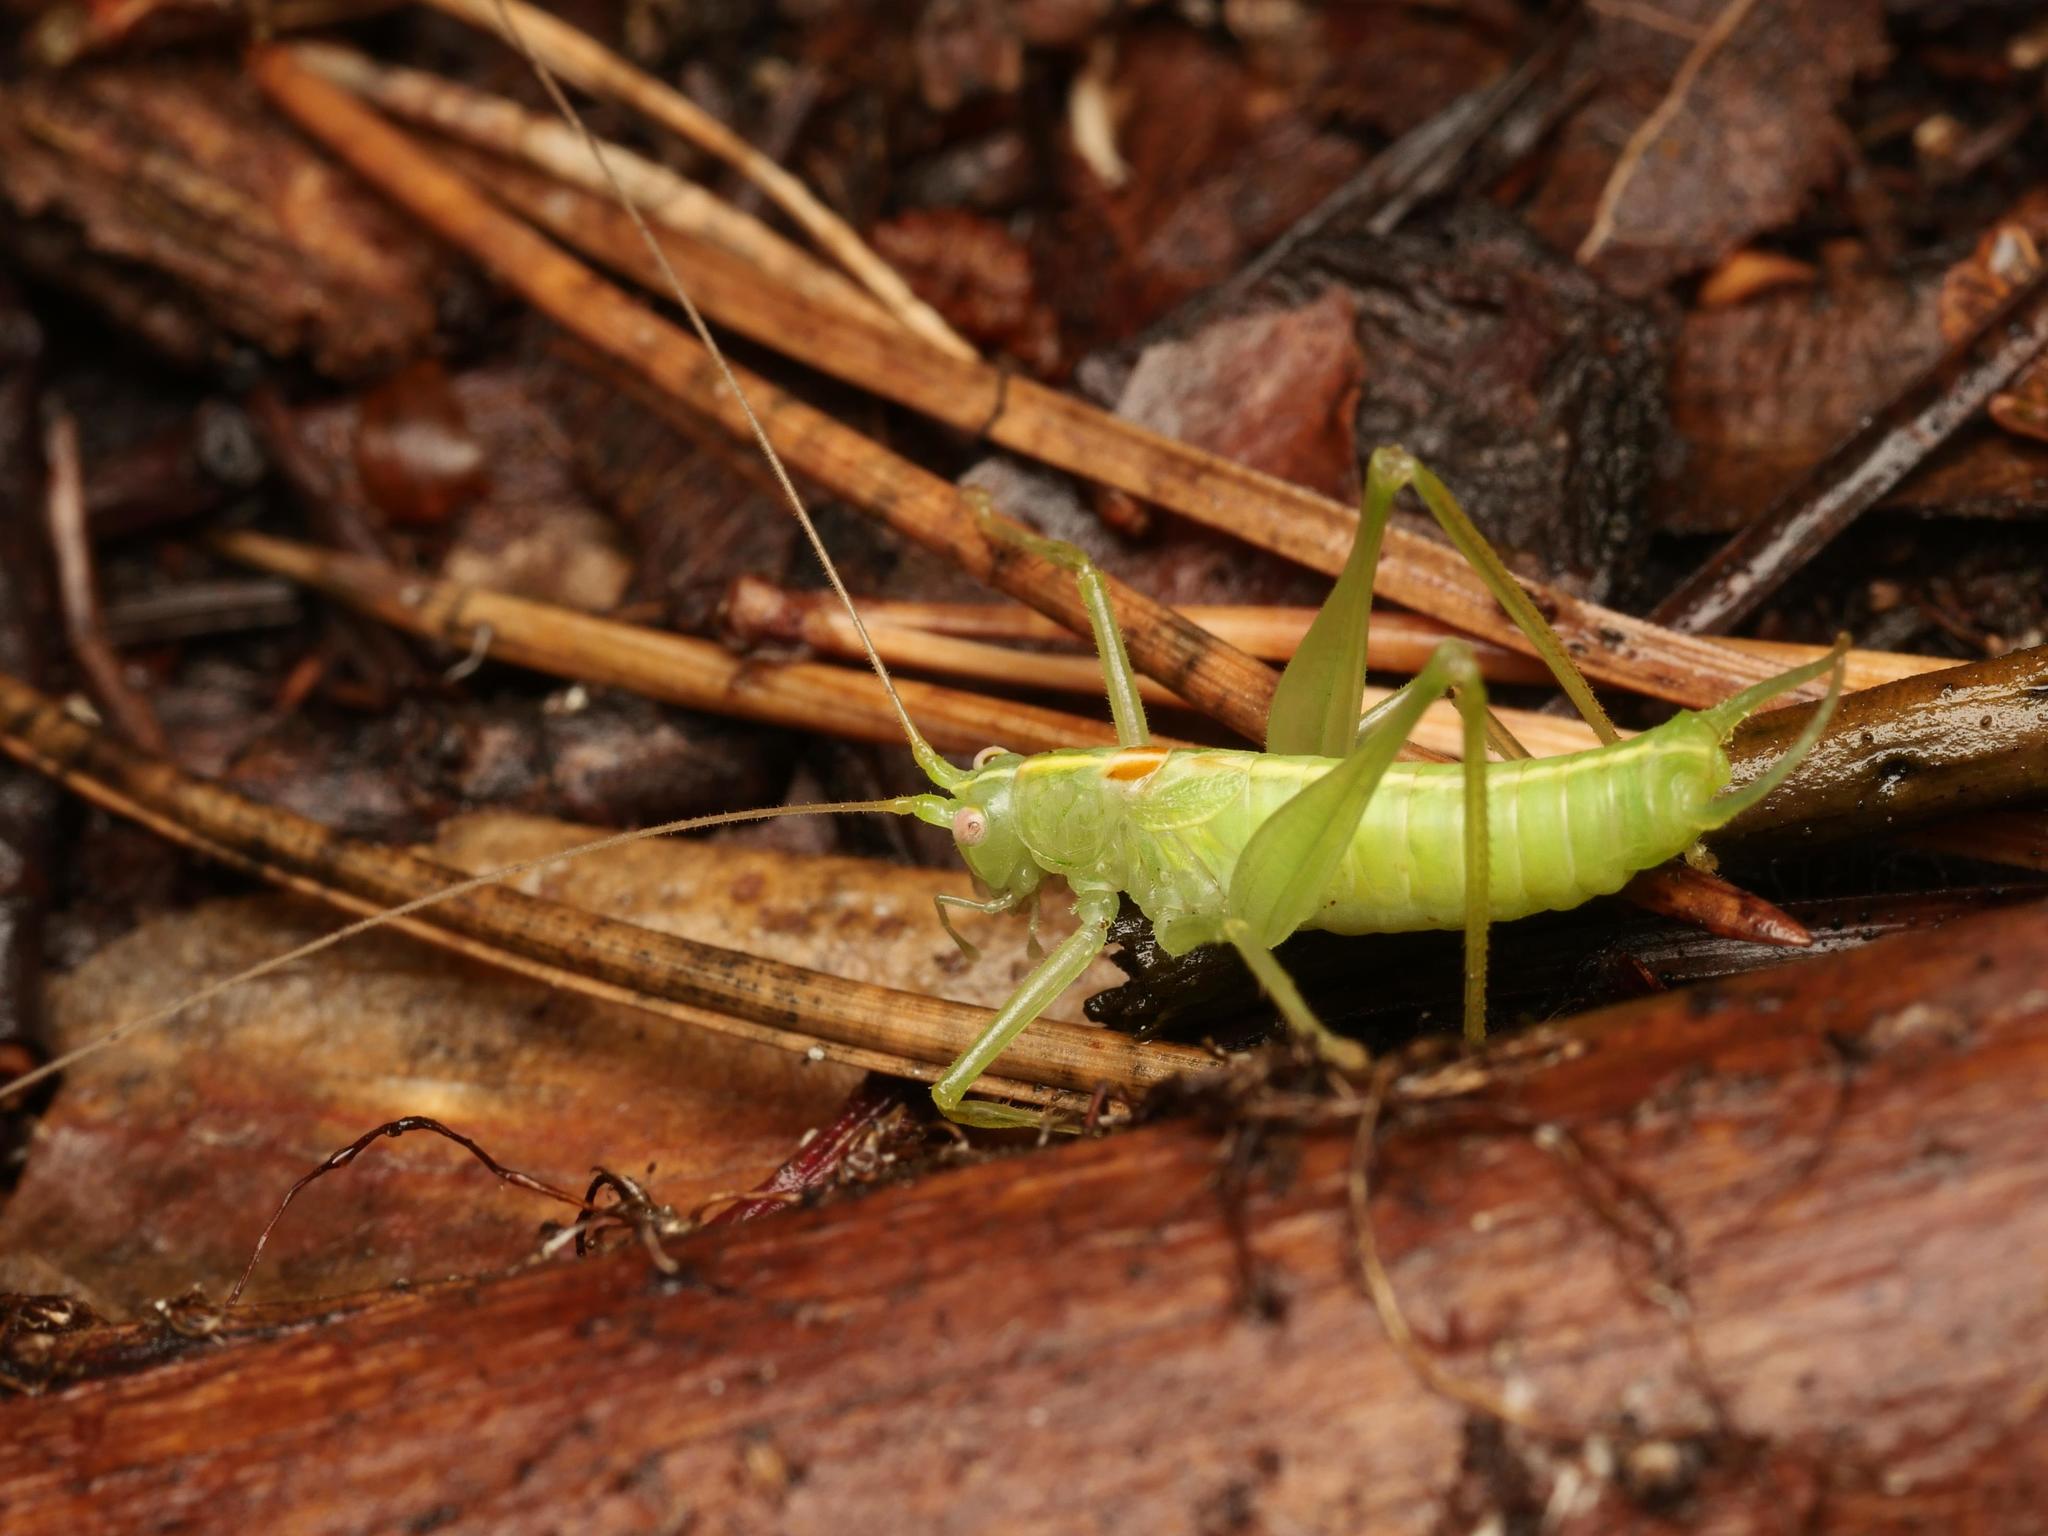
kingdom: Animalia
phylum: Arthropoda
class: Insecta
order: Orthoptera
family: Tettigoniidae
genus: Meconema
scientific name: Meconema meridionale
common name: Southern oak bush-cricket
